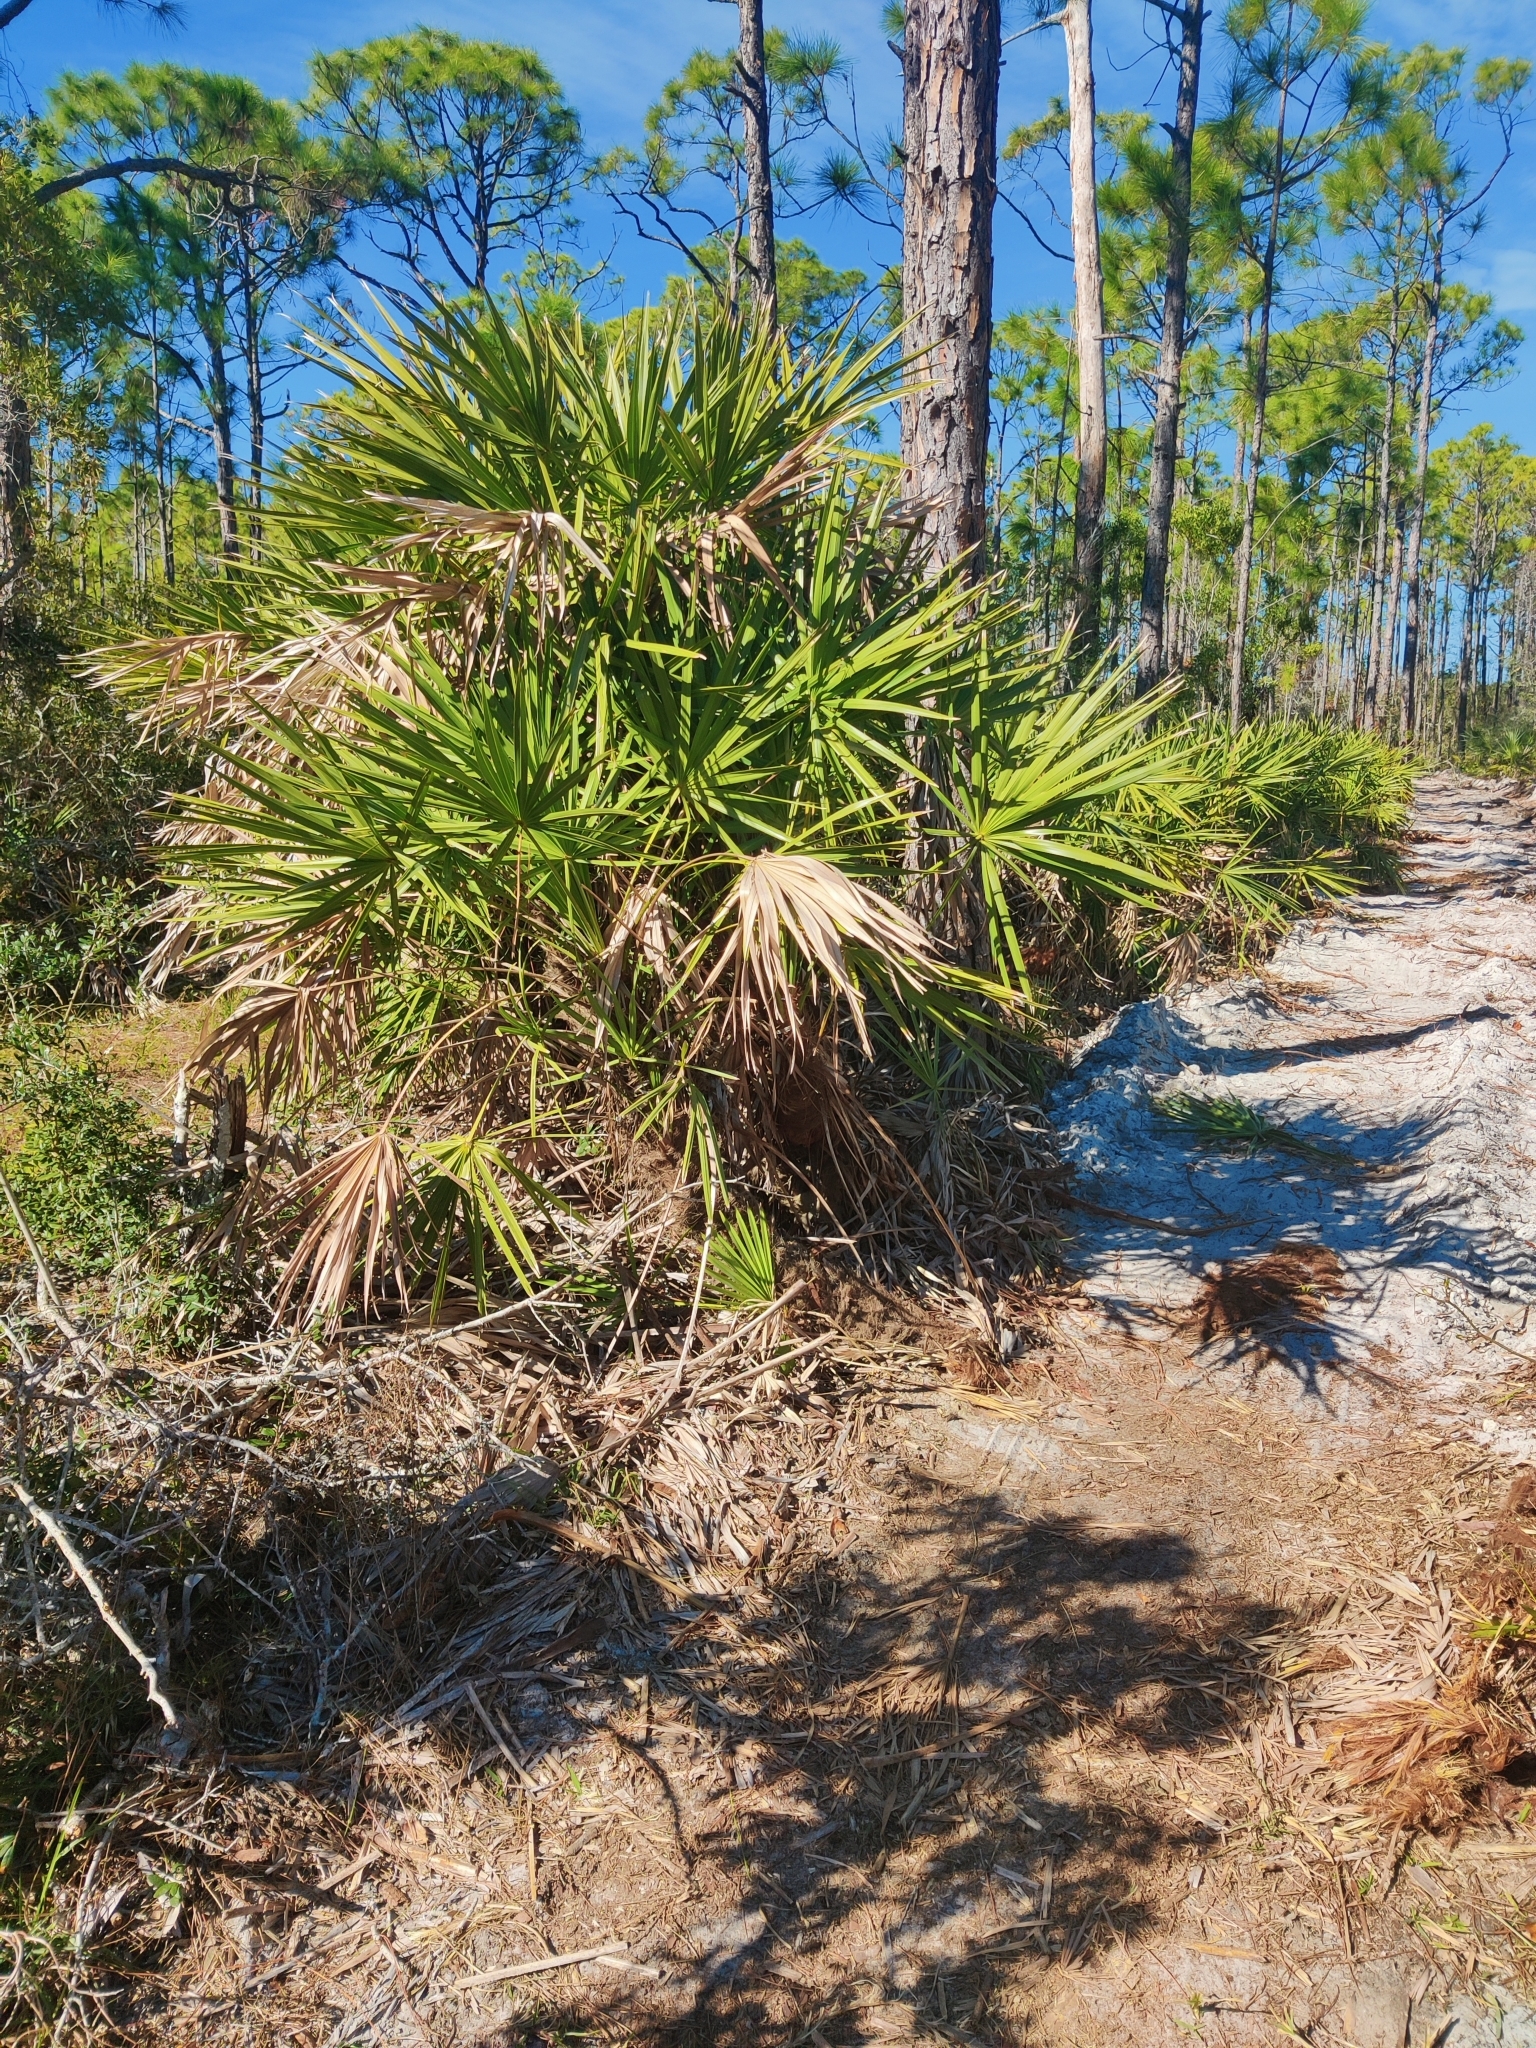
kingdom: Plantae
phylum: Tracheophyta
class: Liliopsida
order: Arecales
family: Arecaceae
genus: Serenoa
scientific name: Serenoa repens
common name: Saw-palmetto
